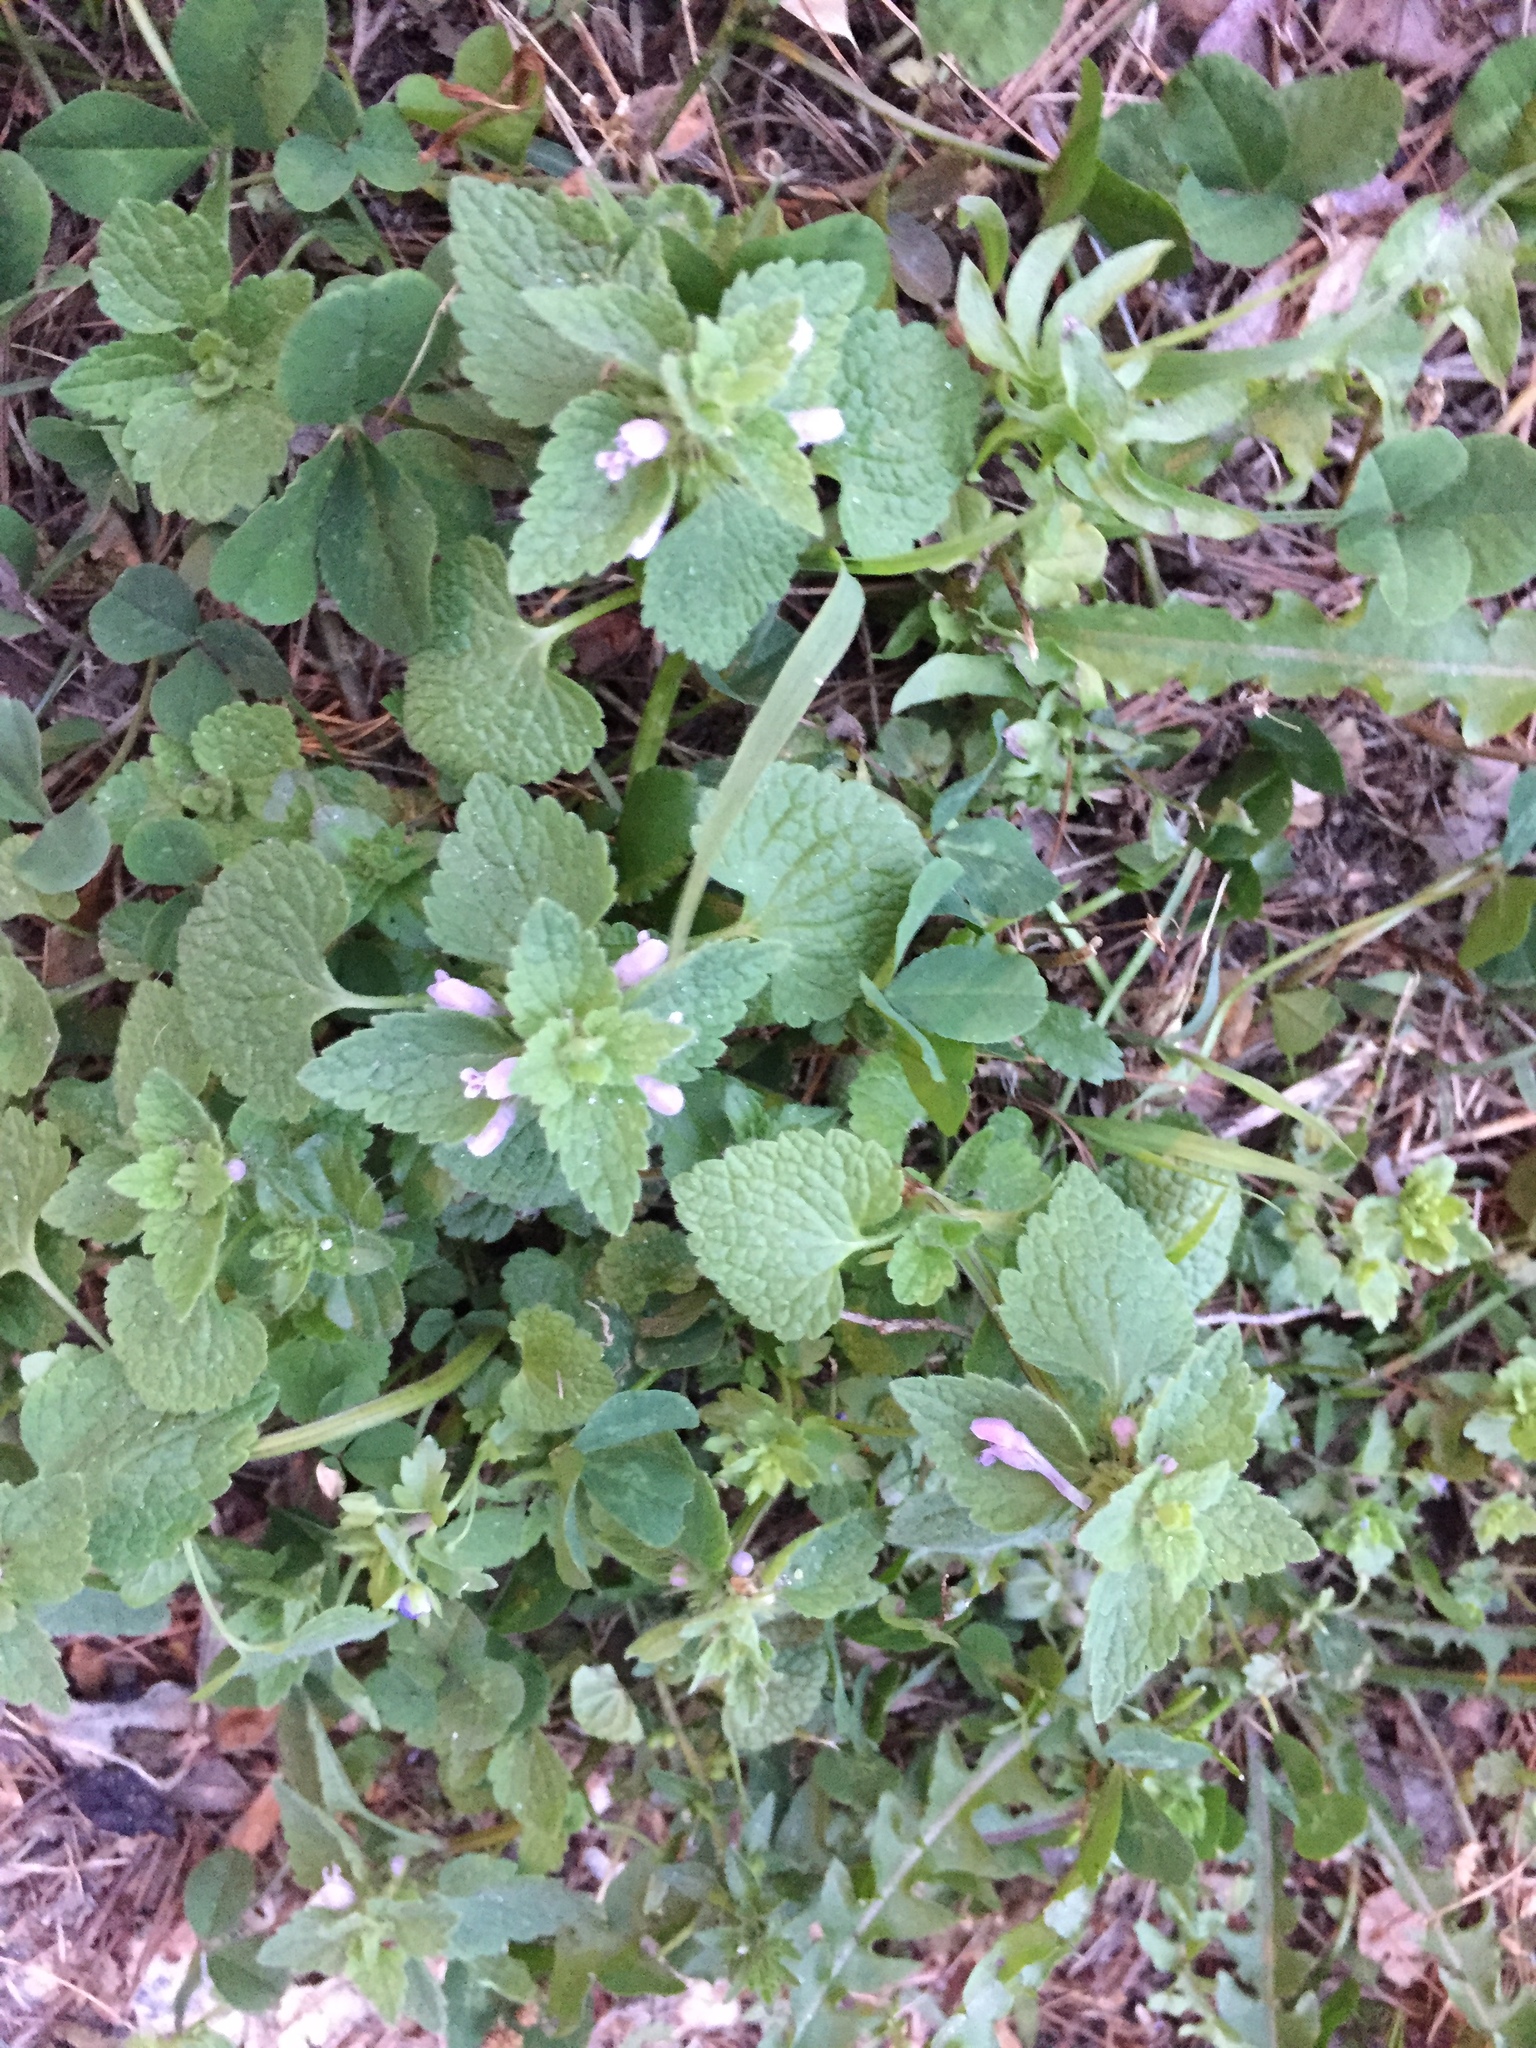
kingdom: Plantae
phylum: Tracheophyta
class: Magnoliopsida
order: Lamiales
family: Lamiaceae
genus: Lamium
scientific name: Lamium purpureum
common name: Red dead-nettle
